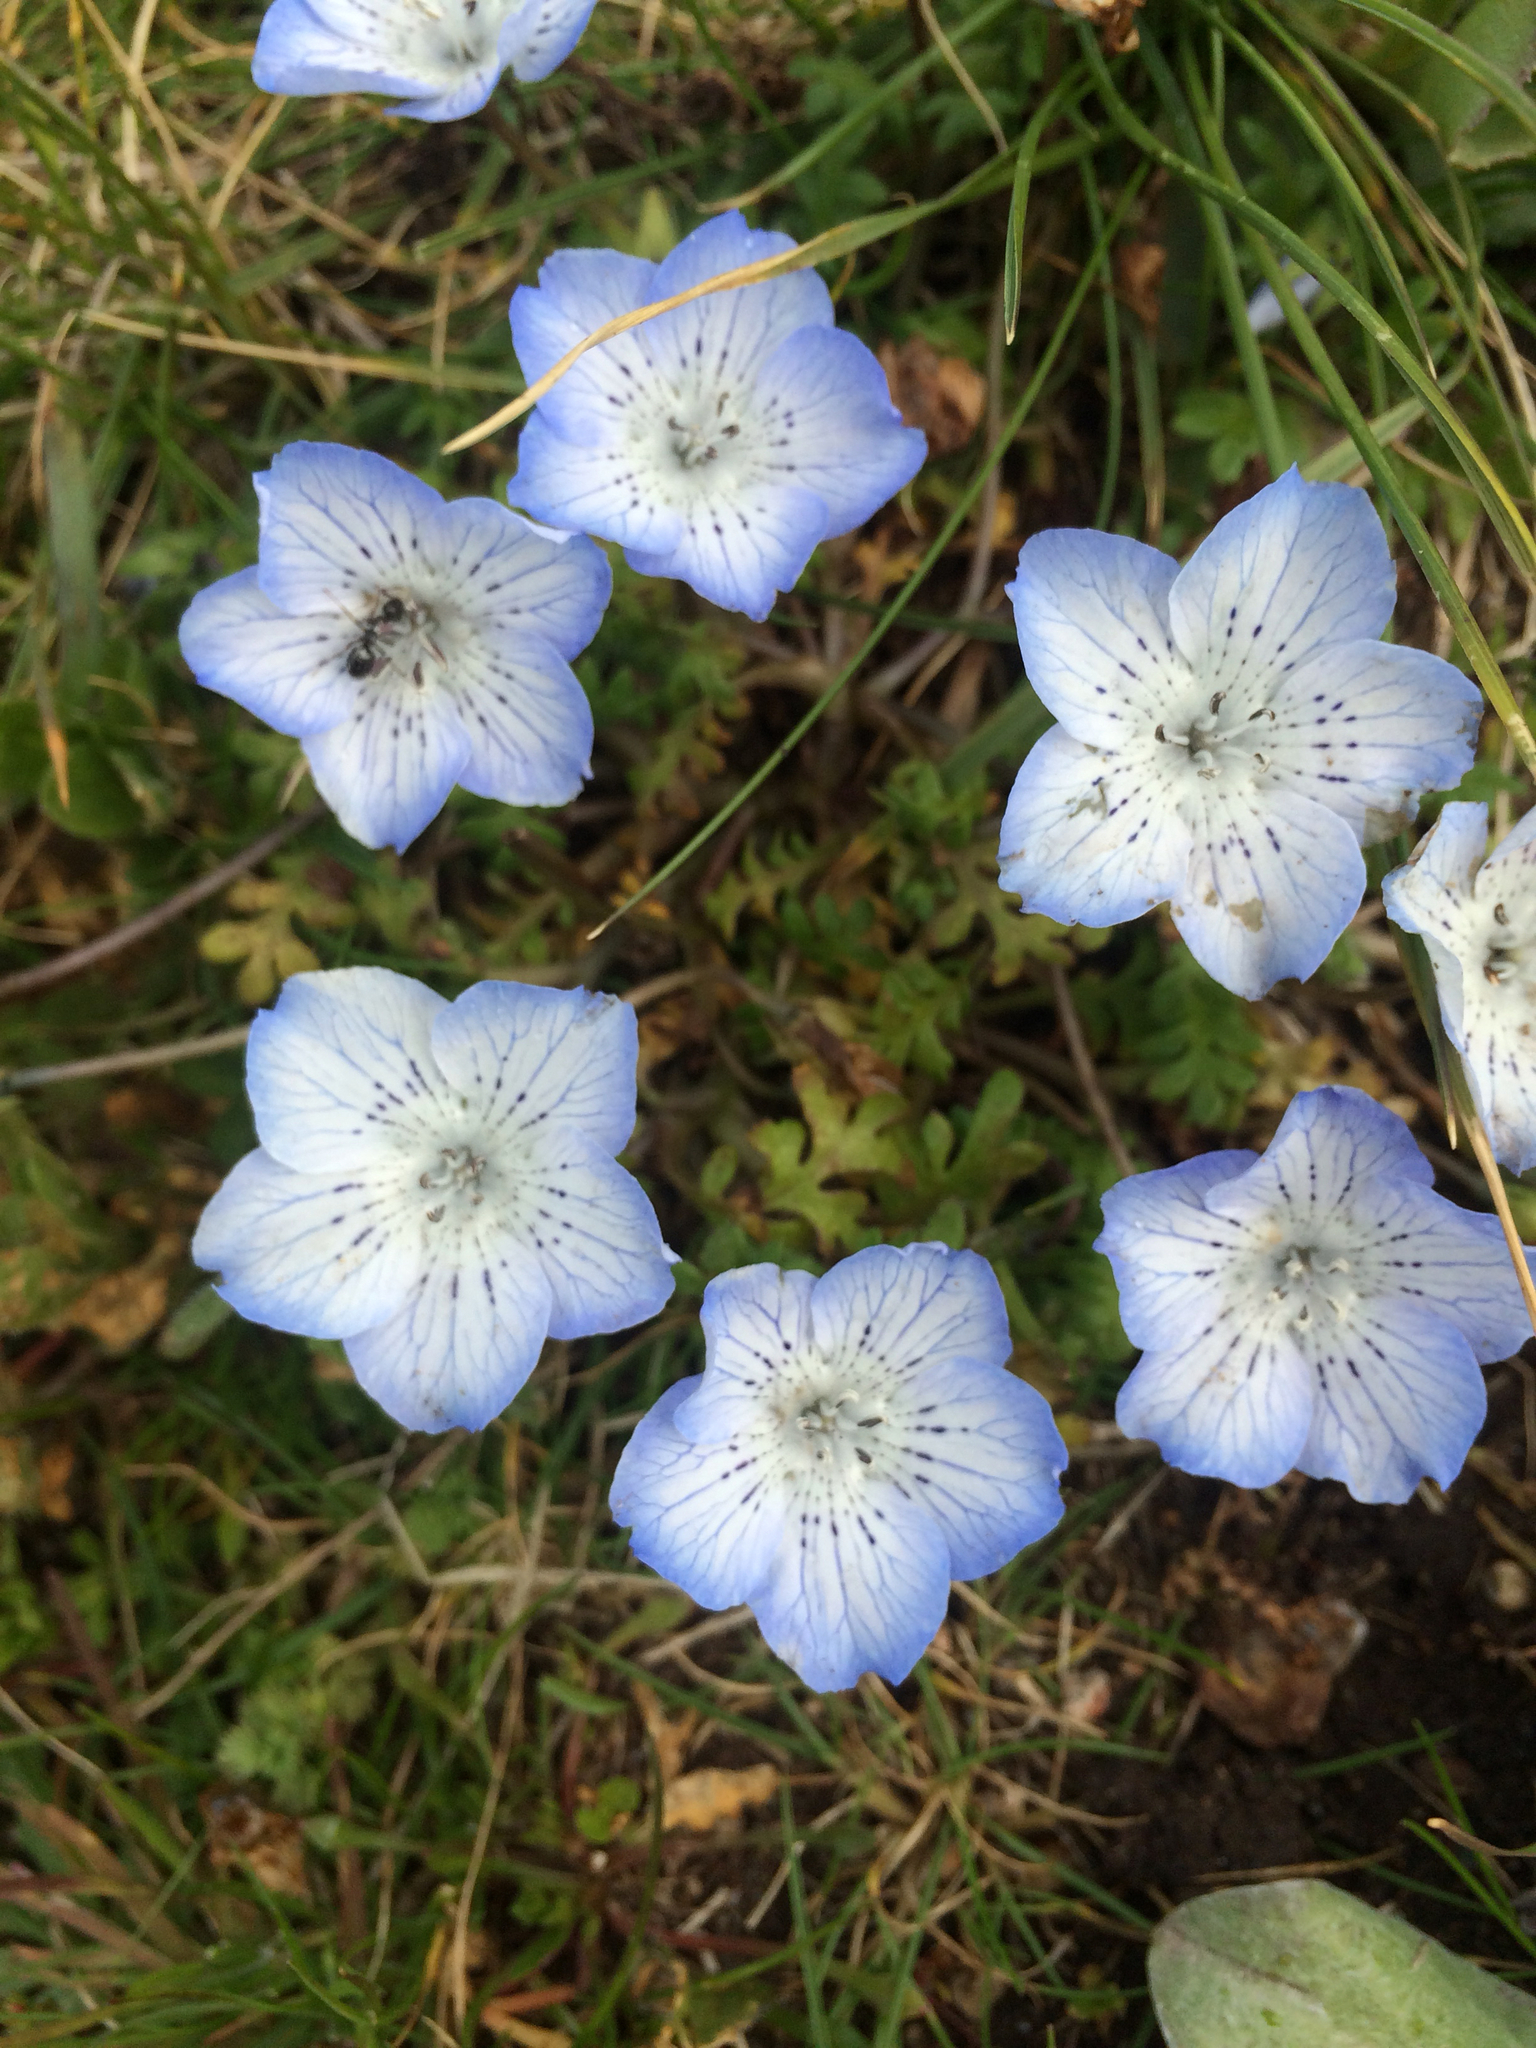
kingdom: Plantae
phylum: Tracheophyta
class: Magnoliopsida
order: Boraginales
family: Hydrophyllaceae
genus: Nemophila
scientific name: Nemophila menziesii
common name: Baby's-blue-eyes
